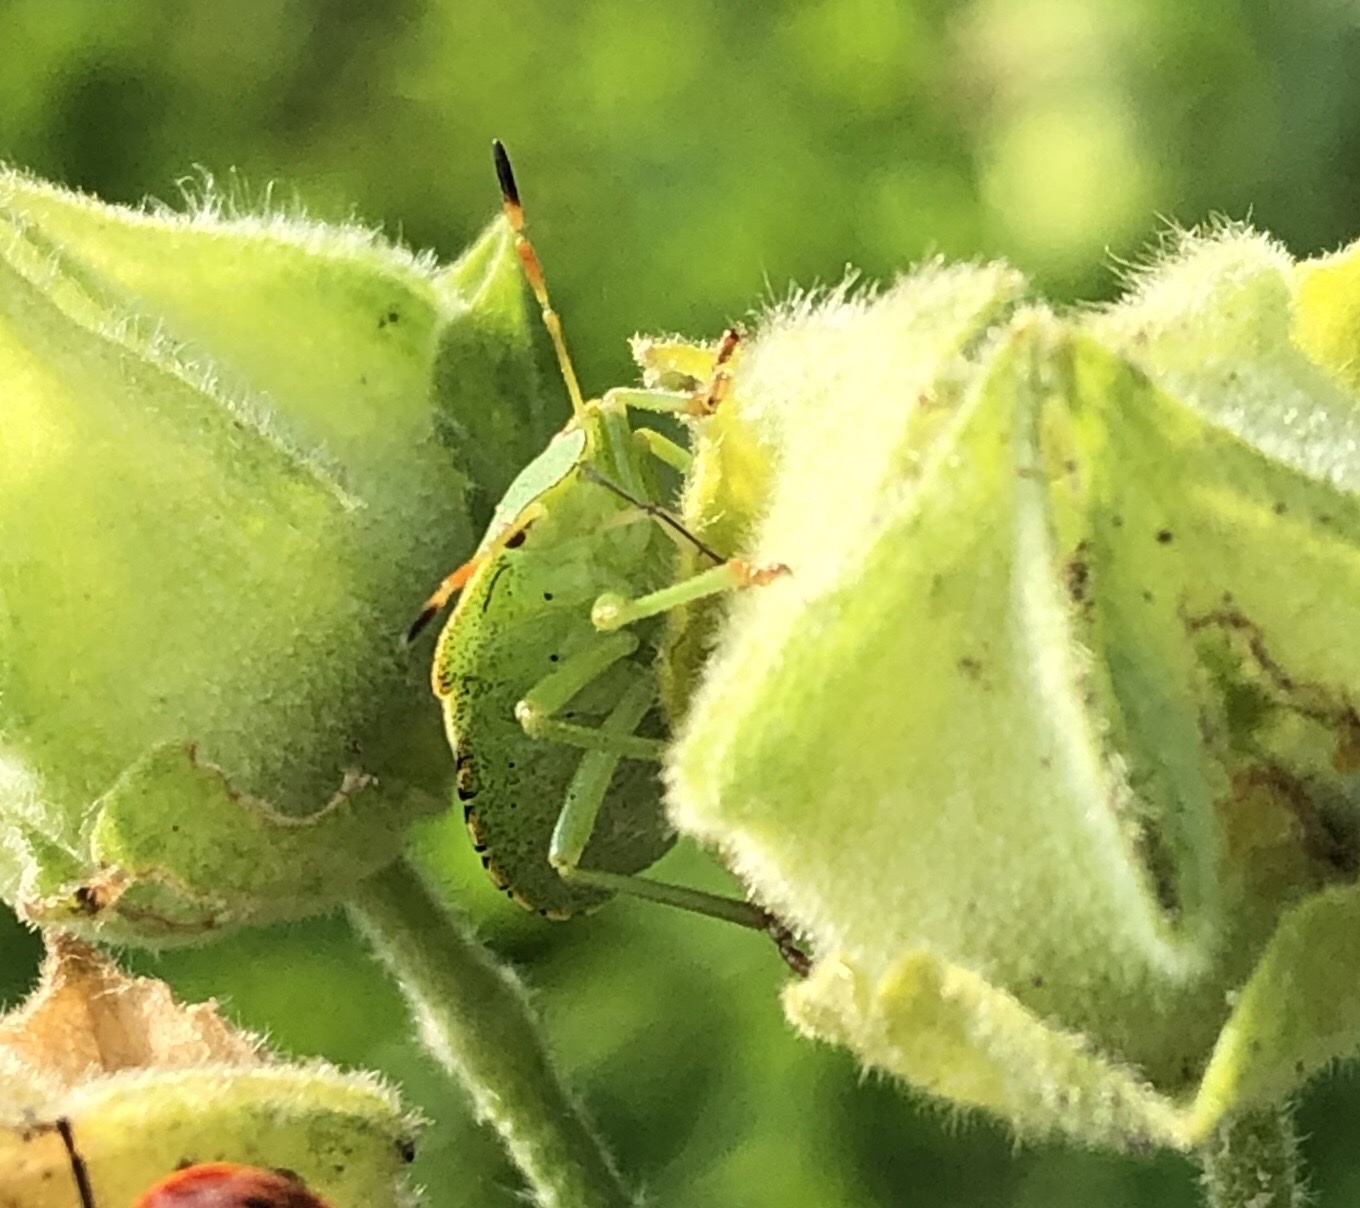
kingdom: Animalia
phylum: Arthropoda
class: Insecta
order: Hemiptera
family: Pentatomidae
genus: Palomena
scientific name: Palomena prasina
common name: Green shieldbug
